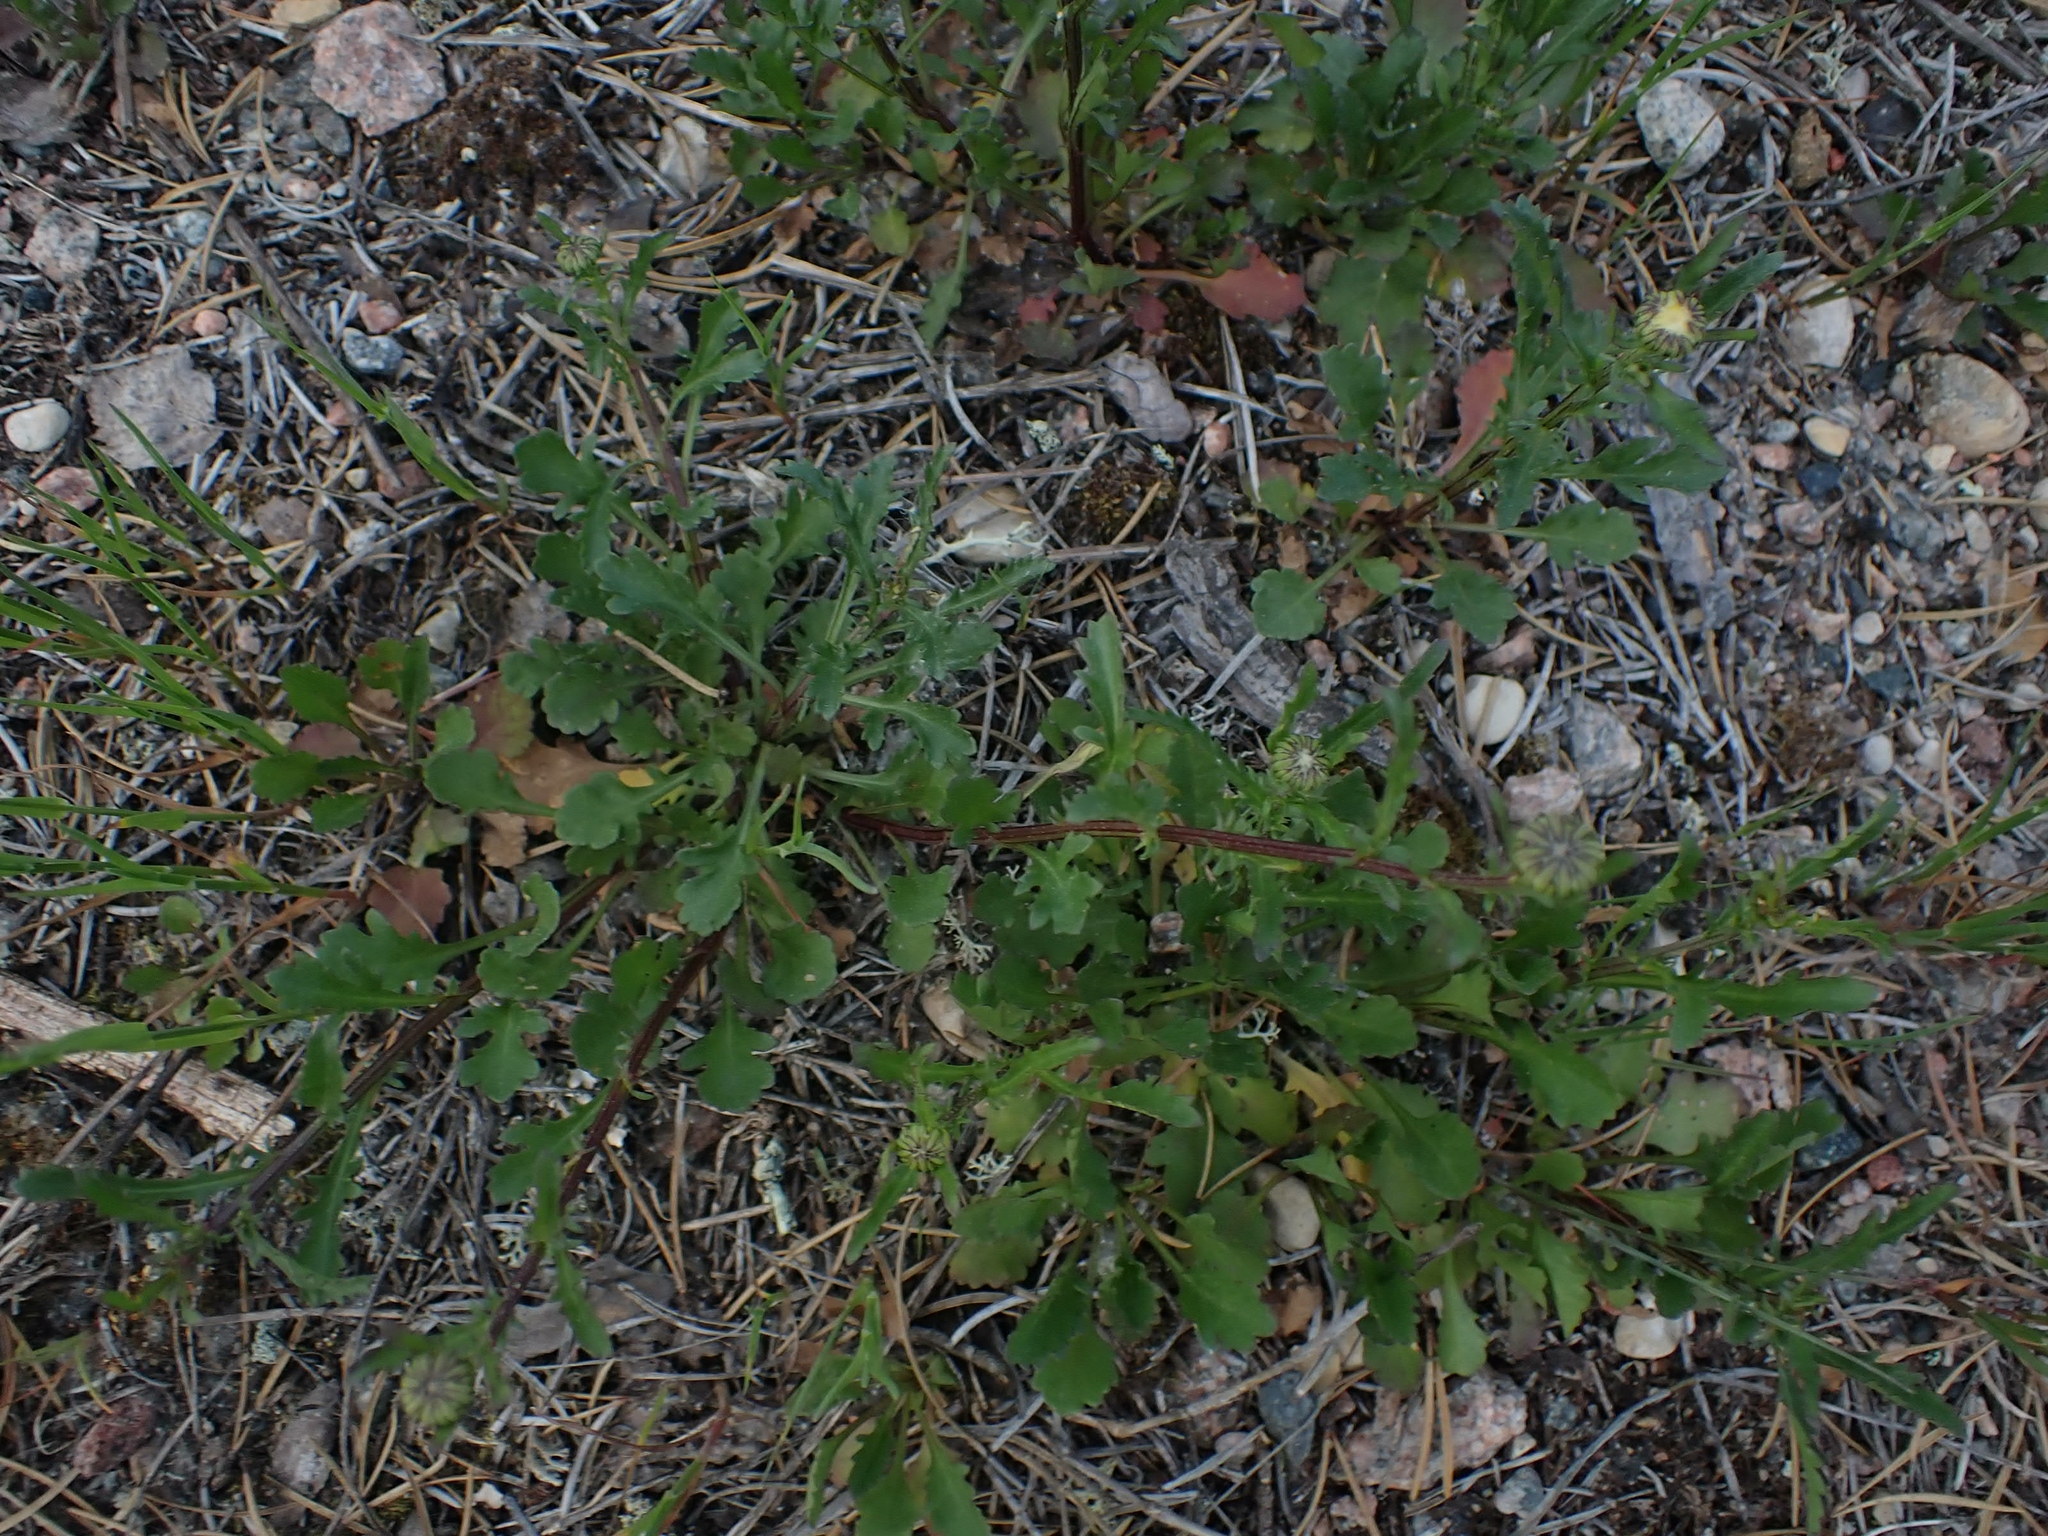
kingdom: Plantae
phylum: Tracheophyta
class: Magnoliopsida
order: Asterales
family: Asteraceae
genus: Leucanthemum
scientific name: Leucanthemum vulgare
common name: Oxeye daisy
